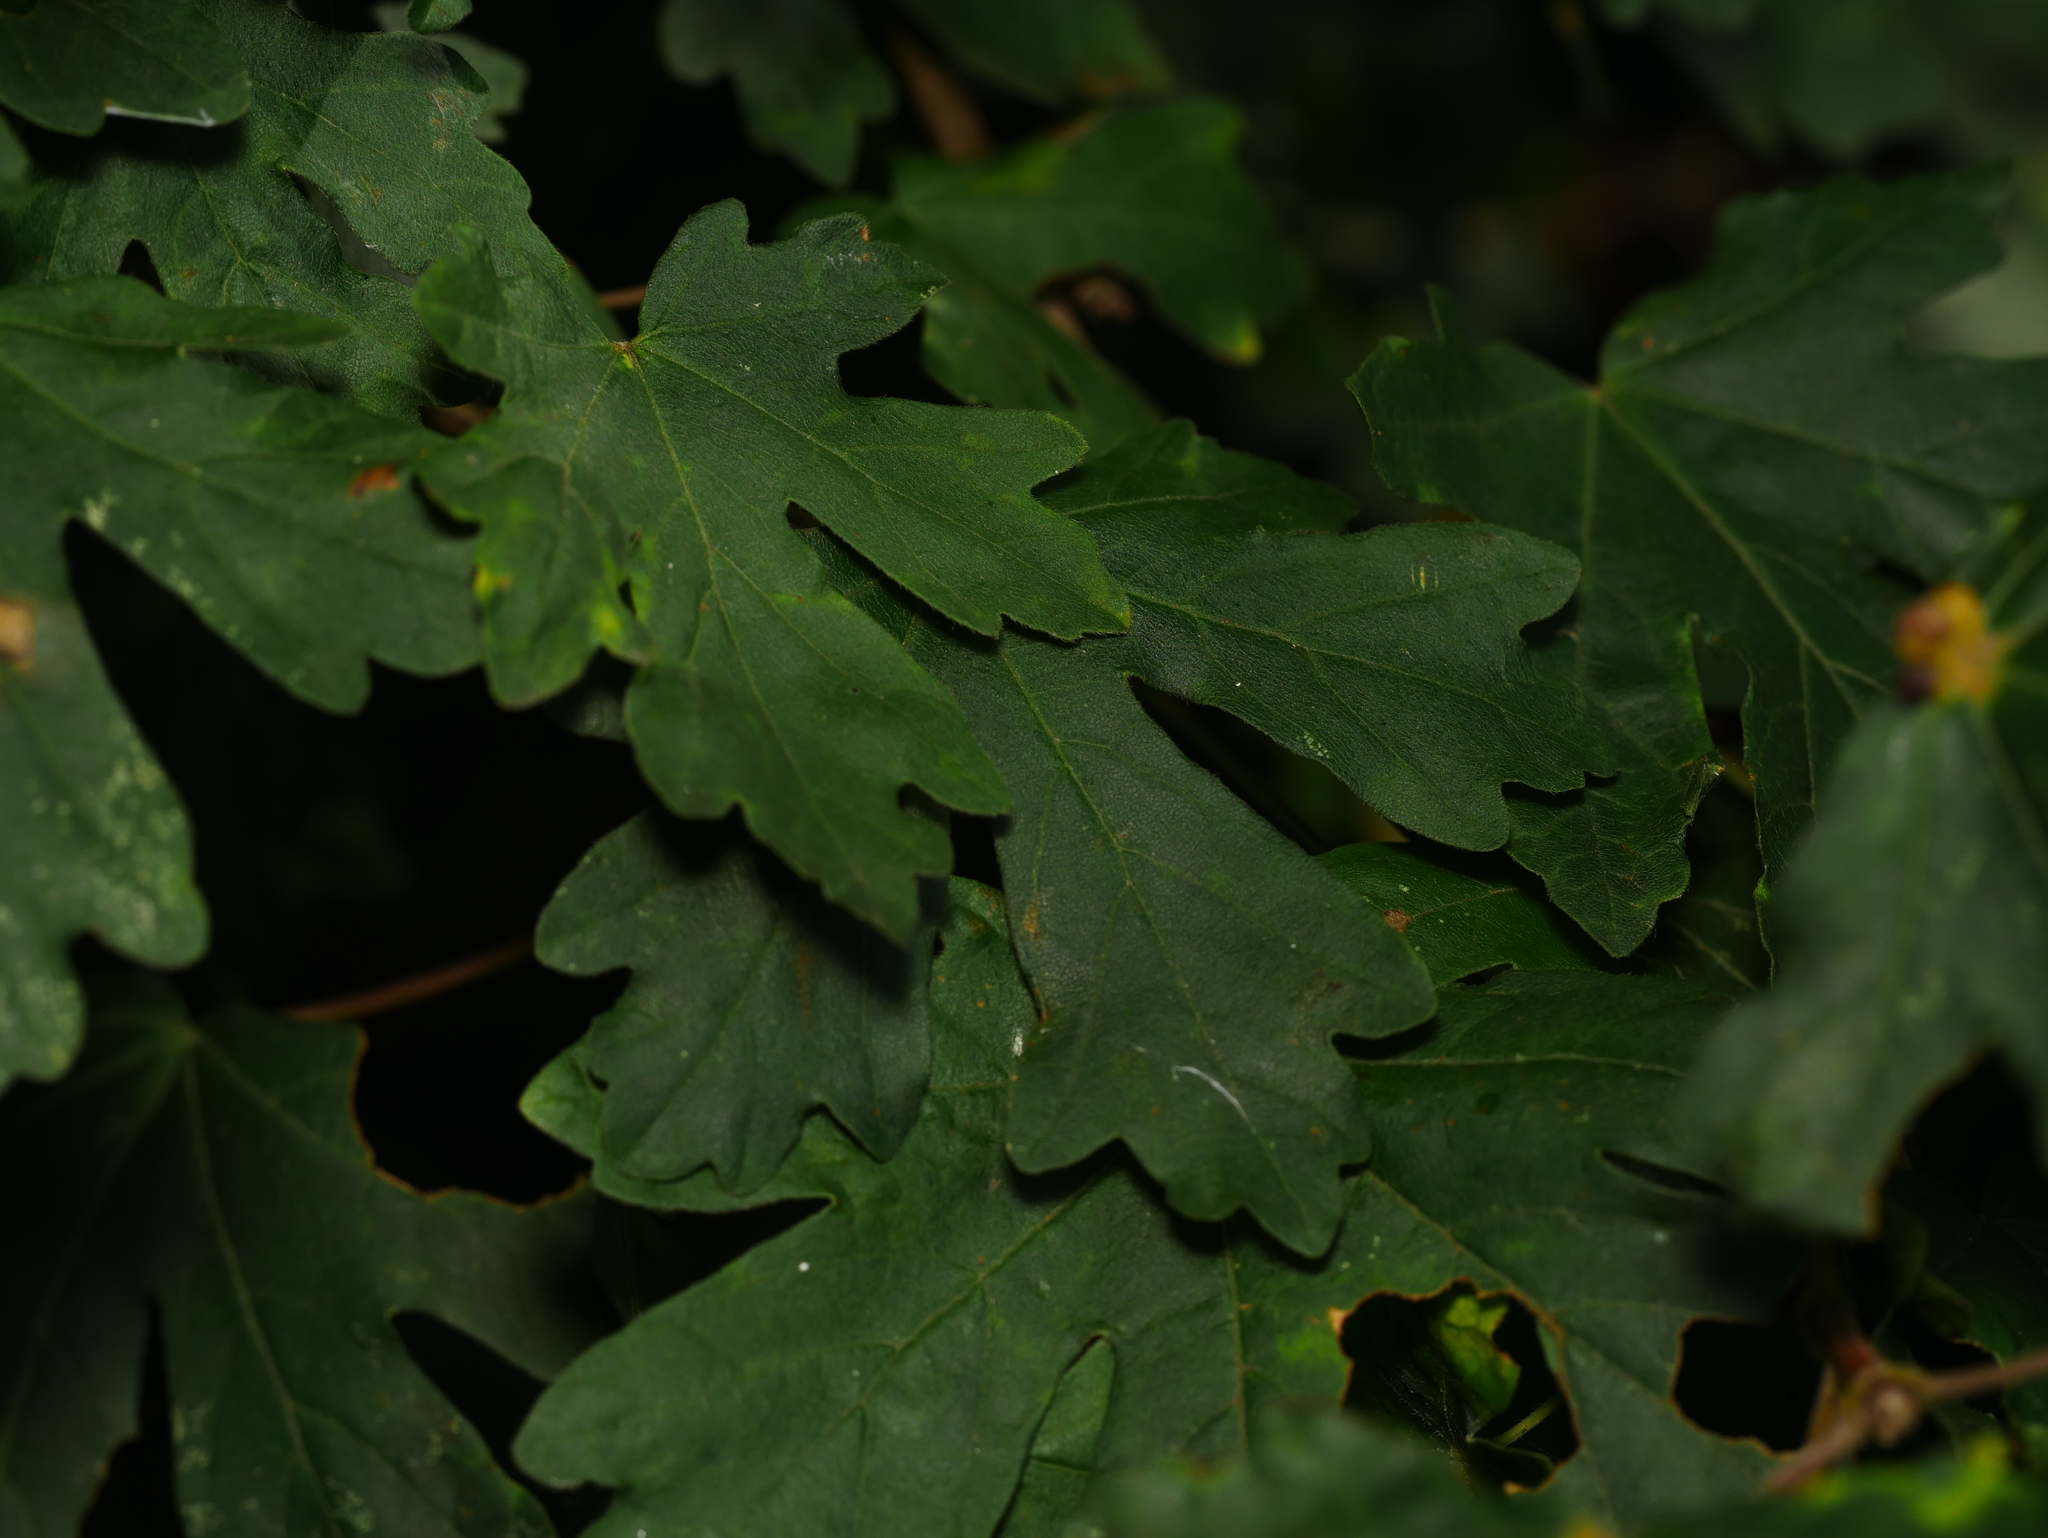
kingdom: Plantae
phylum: Tracheophyta
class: Magnoliopsida
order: Sapindales
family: Sapindaceae
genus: Acer
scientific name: Acer campestre
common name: Field maple
